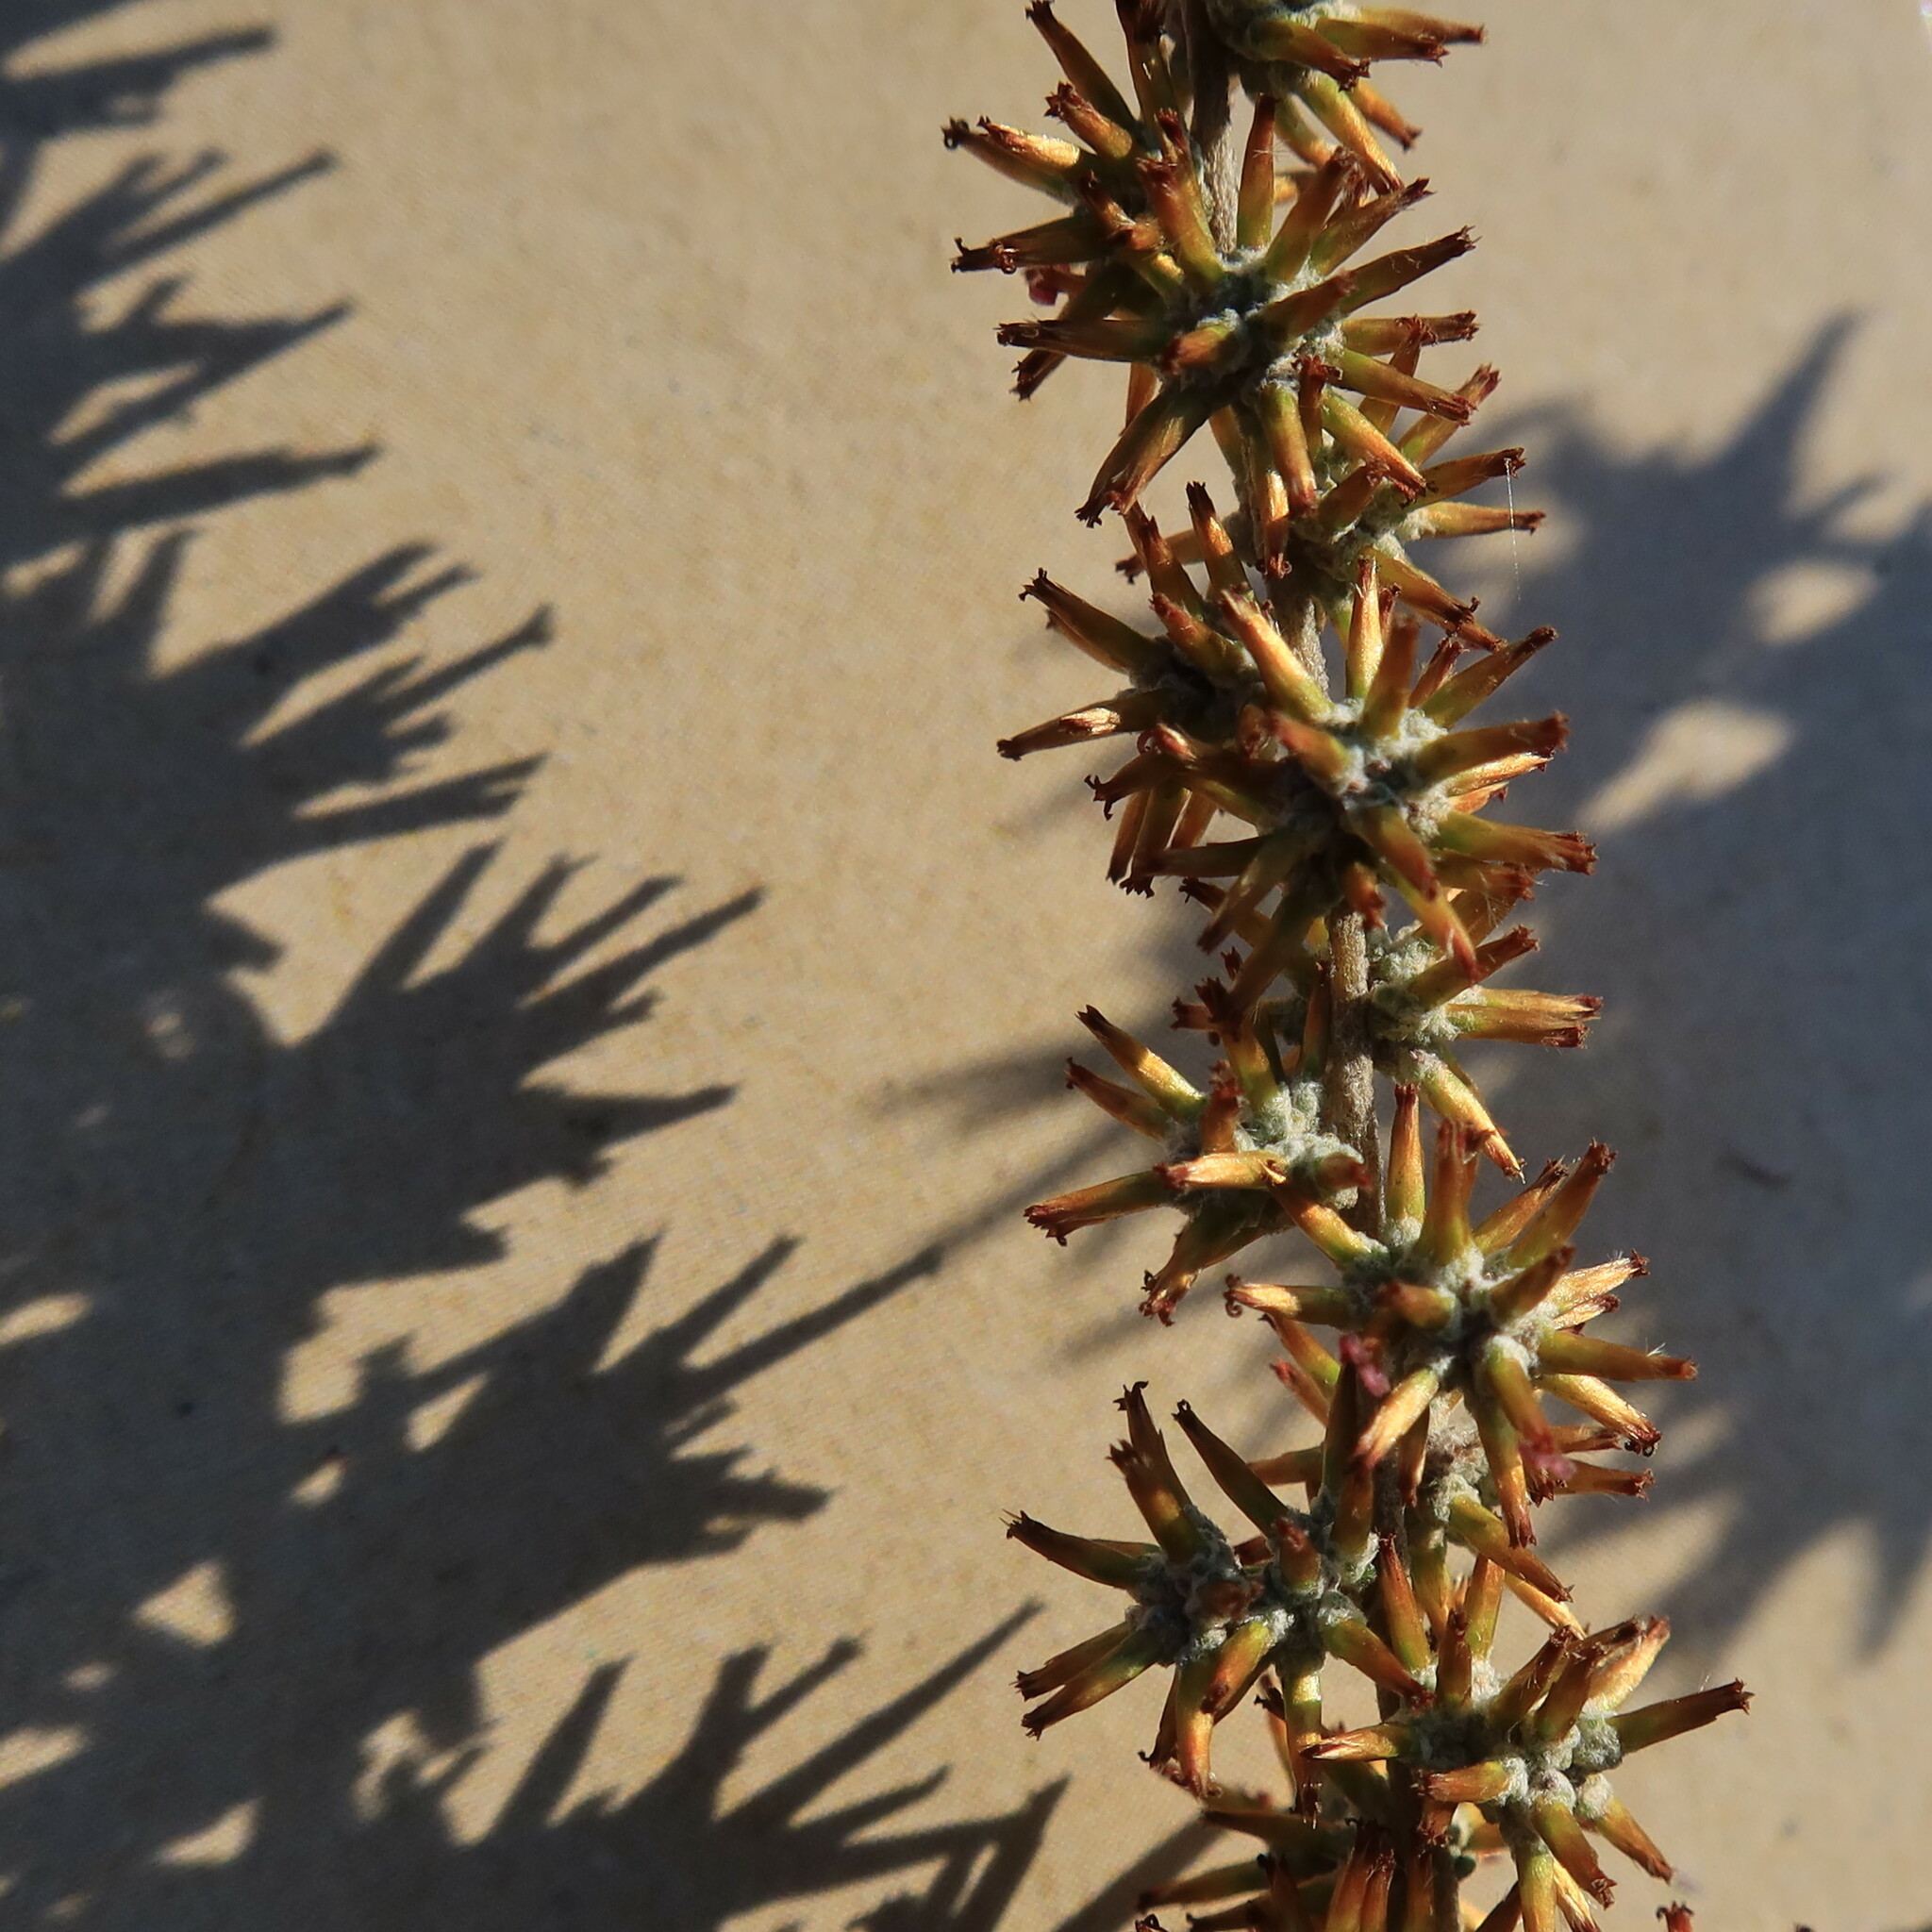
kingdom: Plantae
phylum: Tracheophyta
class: Magnoliopsida
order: Asterales
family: Asteraceae
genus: Seriphium
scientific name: Seriphium plumosum
